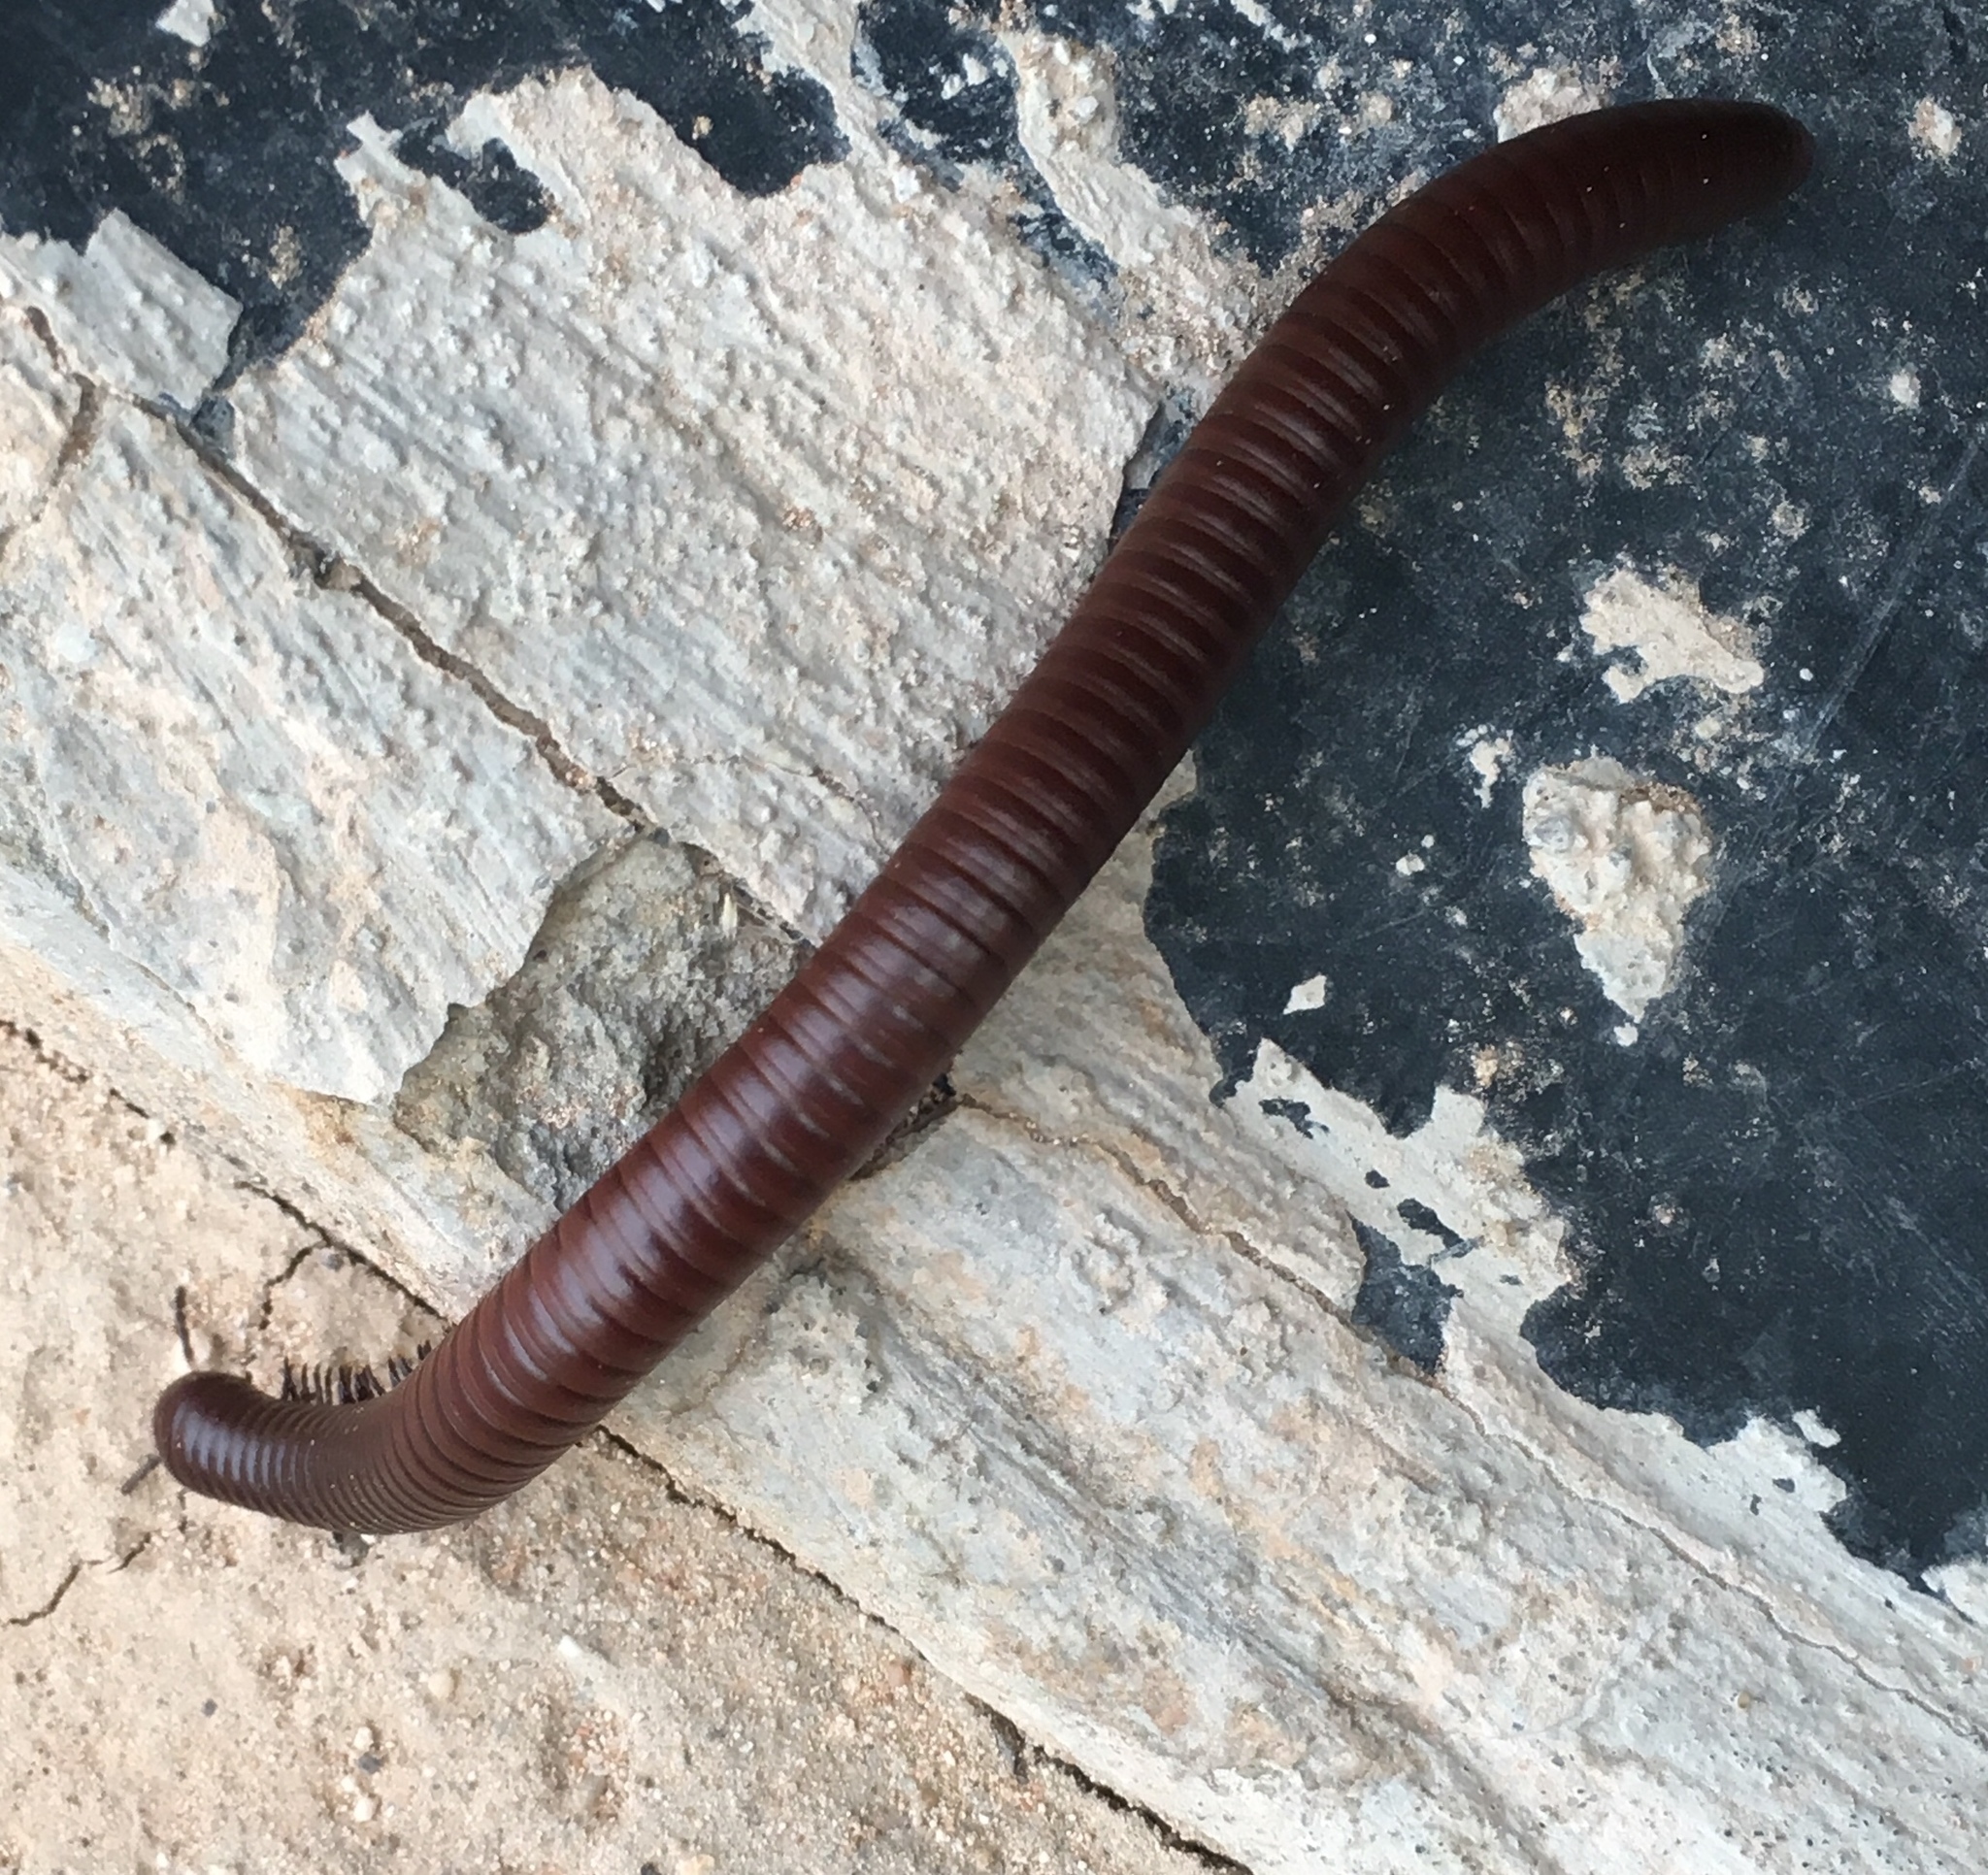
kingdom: Animalia
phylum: Arthropoda
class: Diplopoda
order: Spirostreptida
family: Spirostreptidae
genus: Orthoporus
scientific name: Orthoporus ornatus
